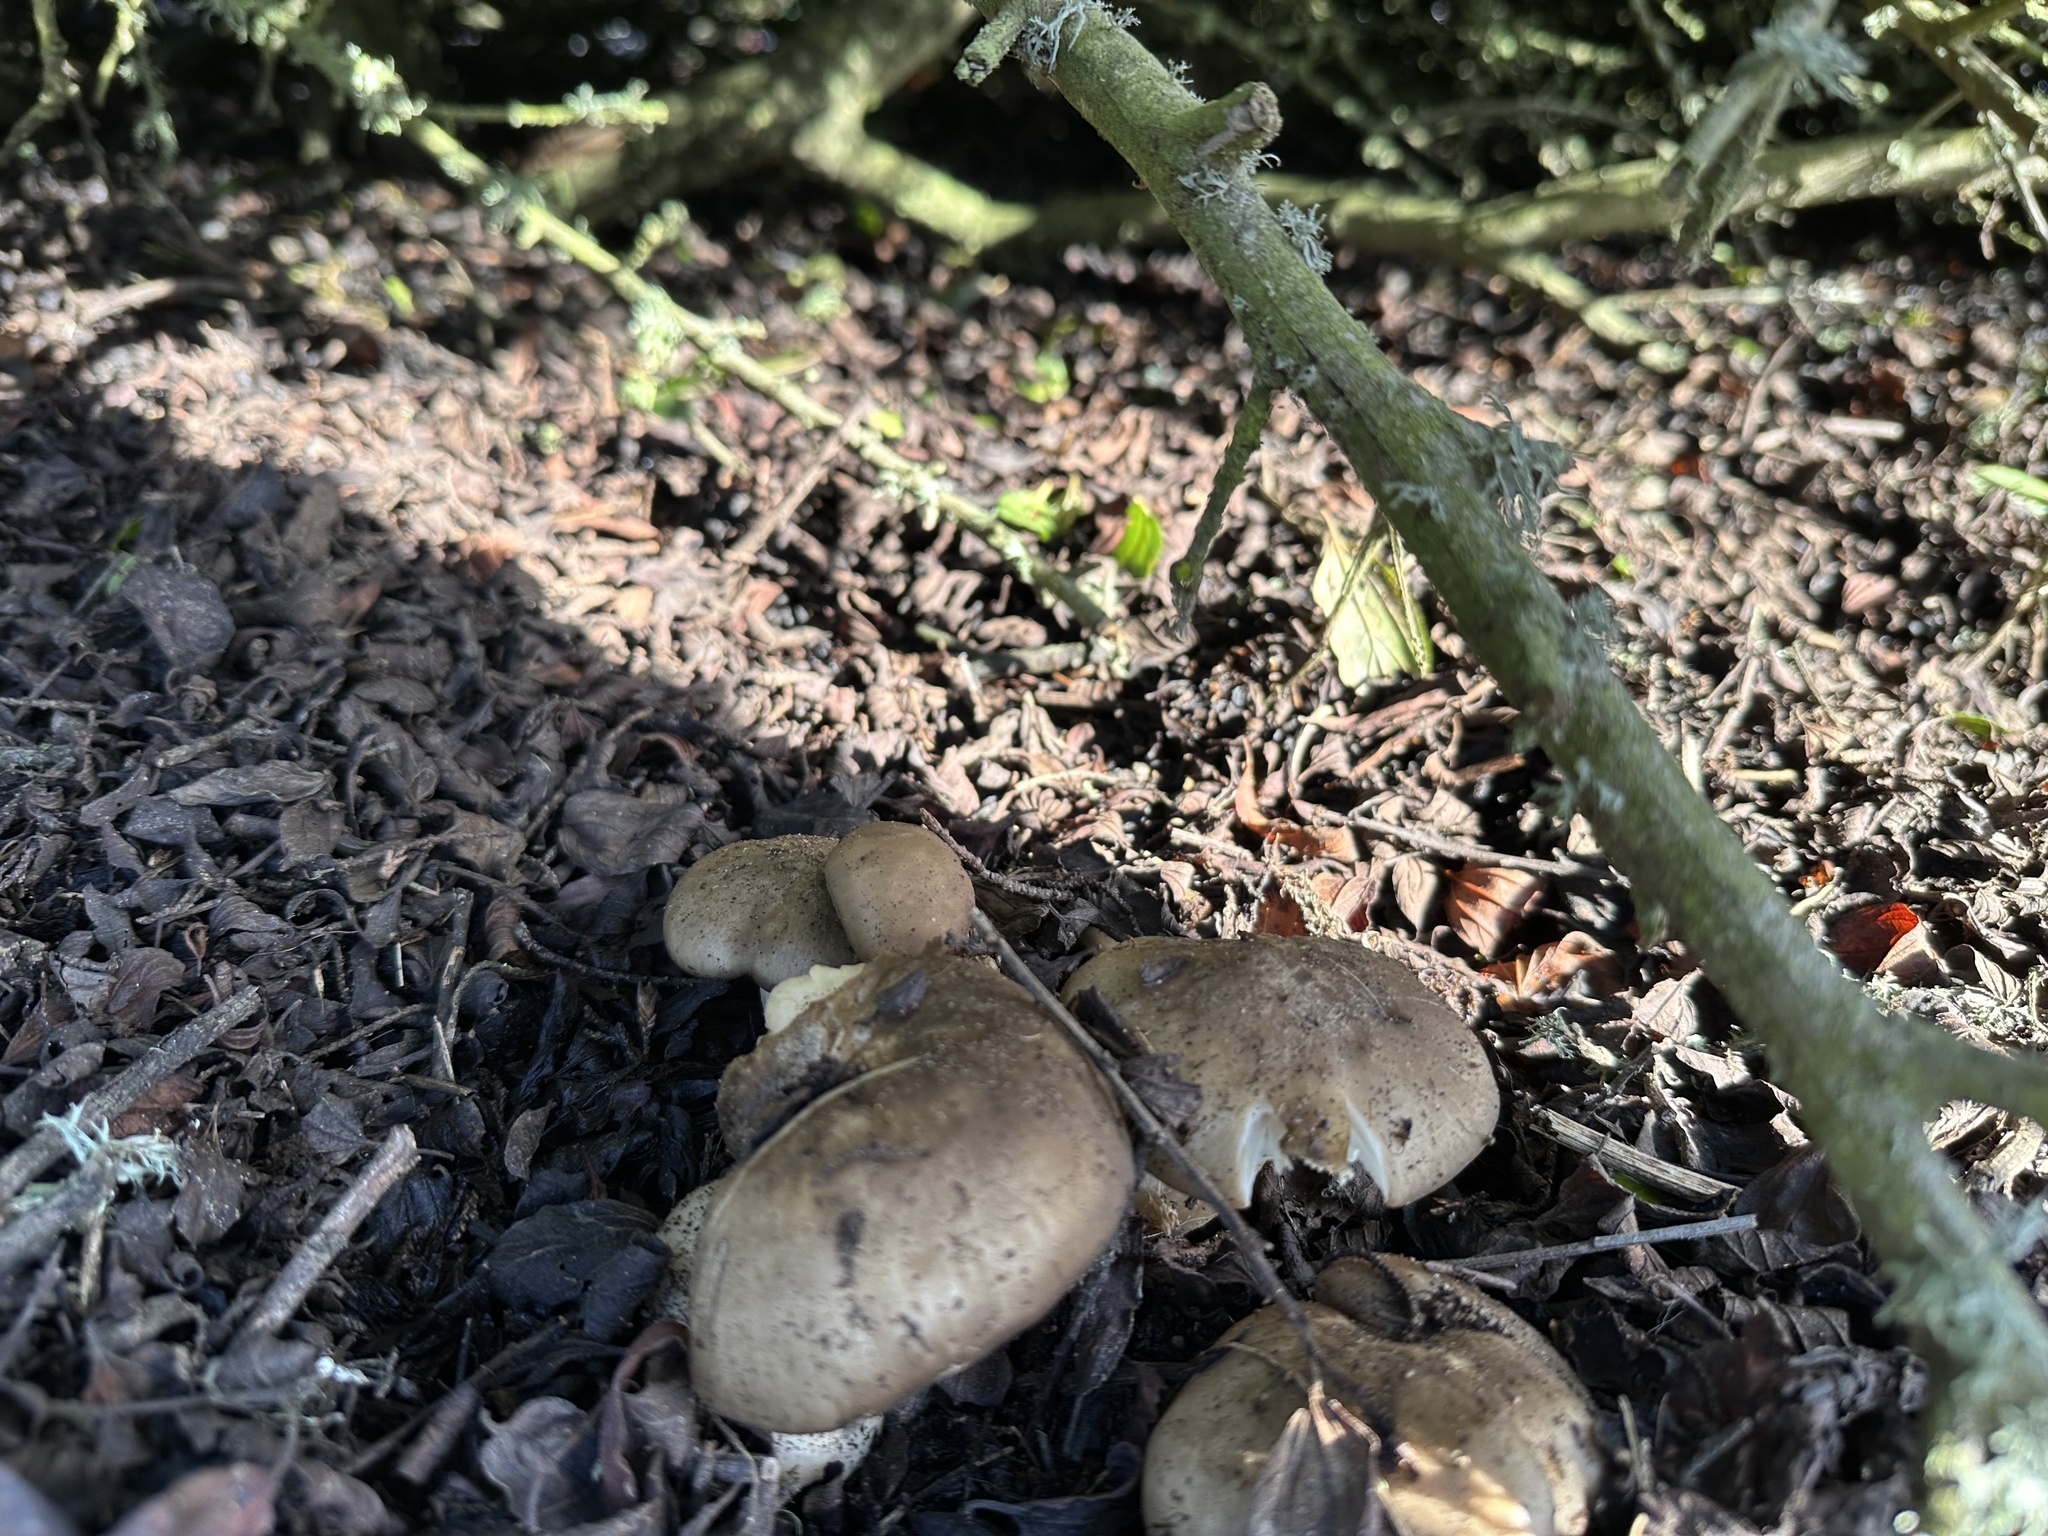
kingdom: Fungi
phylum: Basidiomycota
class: Agaricomycetes
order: Agaricales
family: Hymenogastraceae
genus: Gymnopilus
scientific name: Gymnopilus ventricosus
